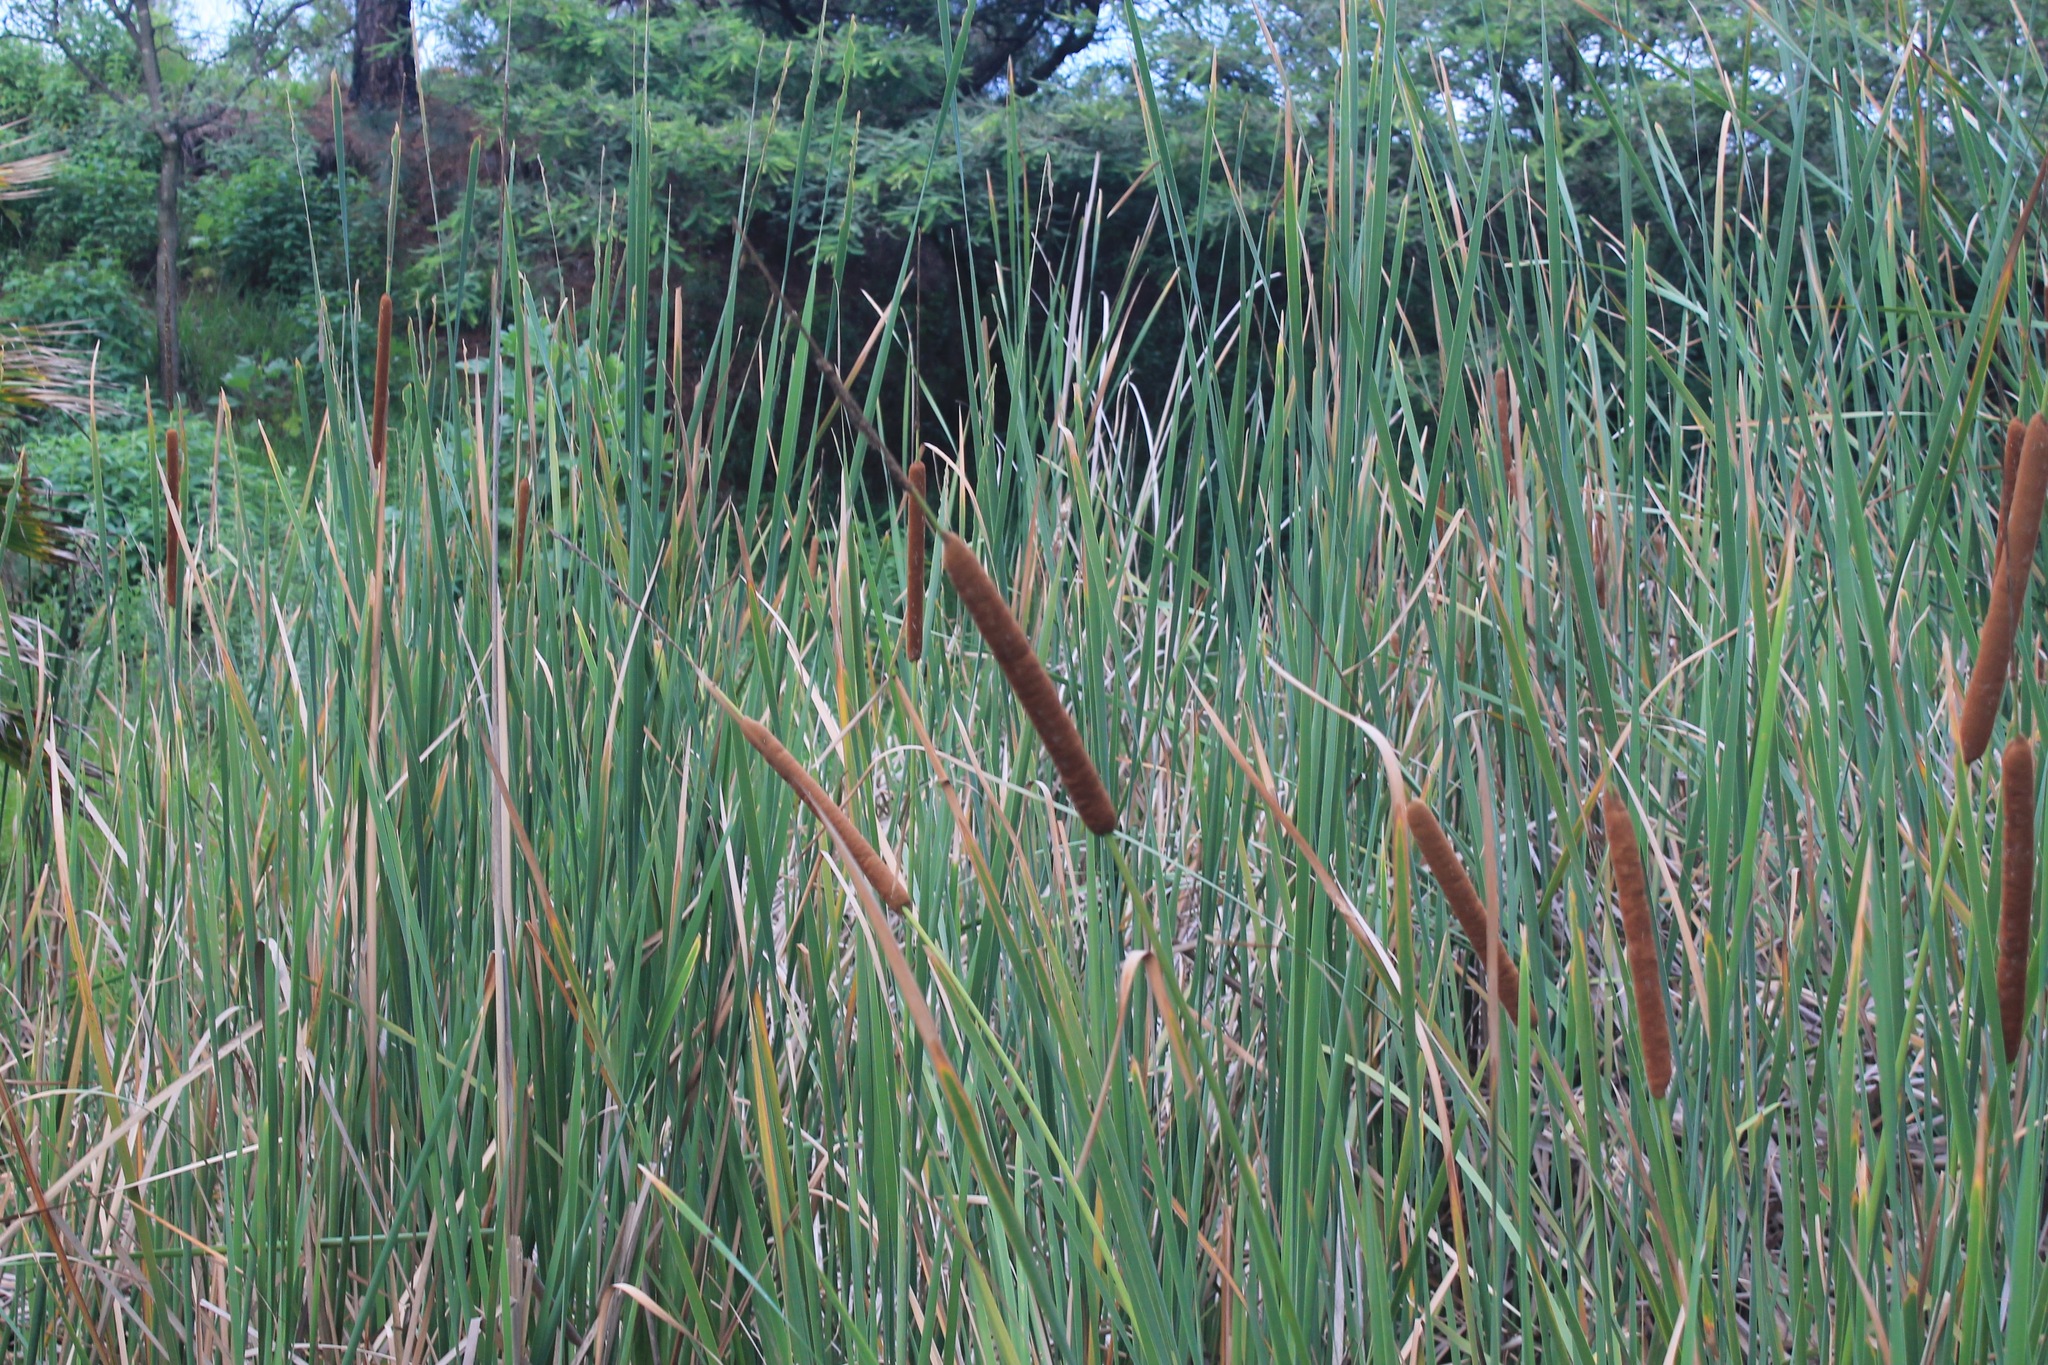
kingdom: Plantae
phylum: Tracheophyta
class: Liliopsida
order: Poales
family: Typhaceae
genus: Typha
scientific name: Typha domingensis
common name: Southern cattail
